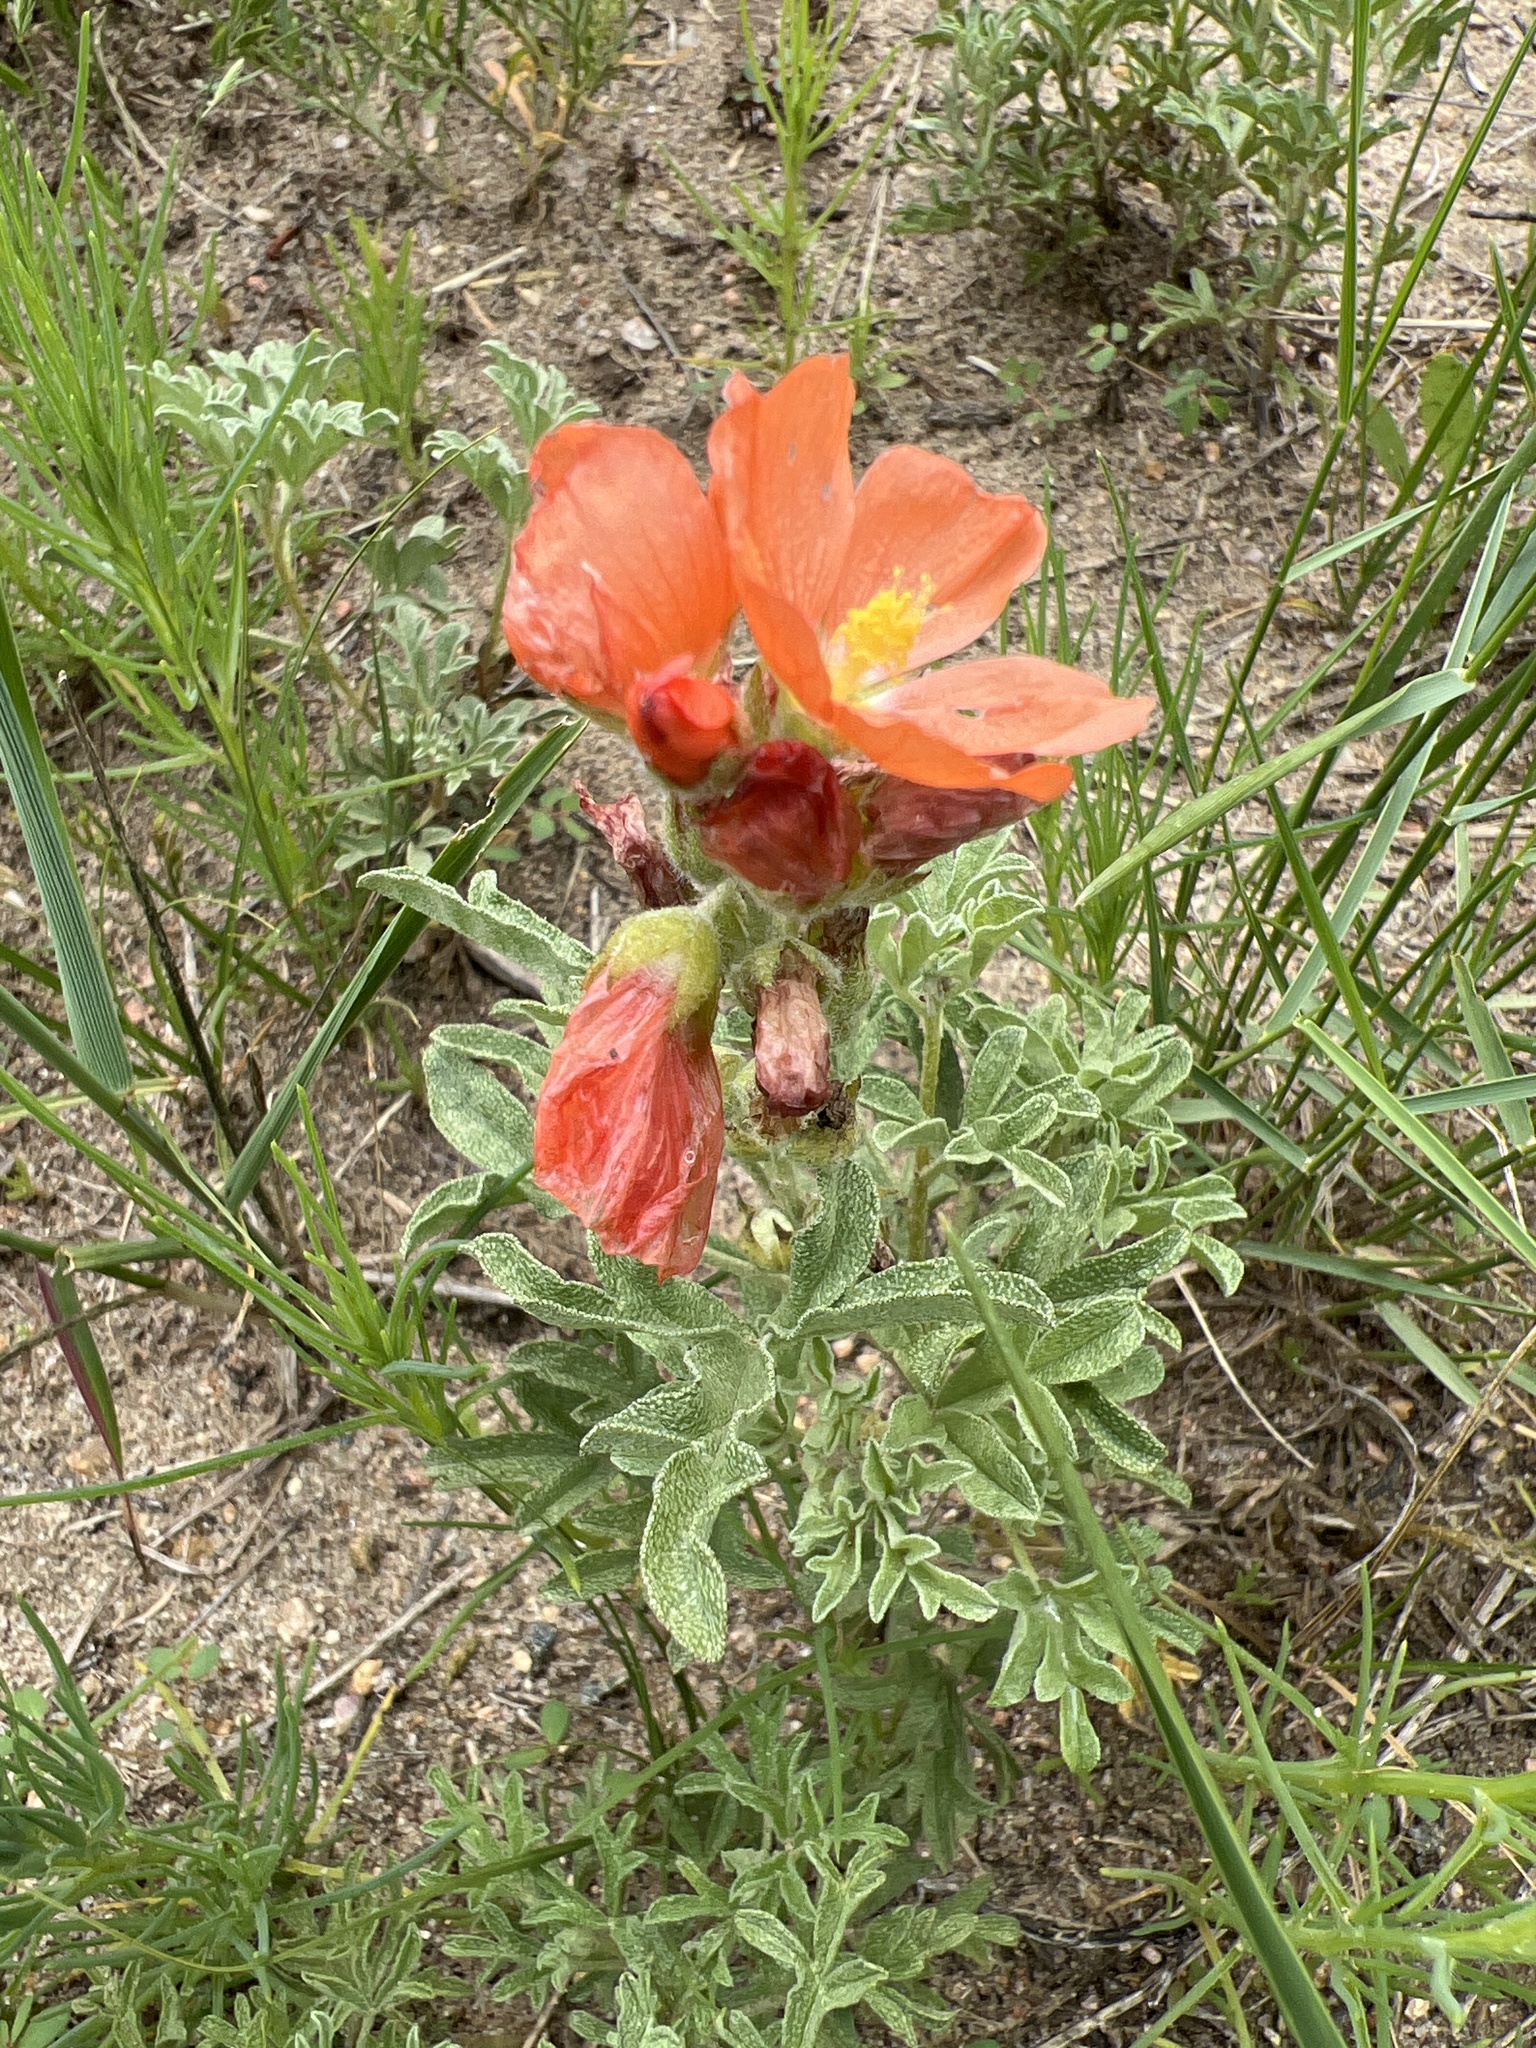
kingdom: Plantae
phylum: Tracheophyta
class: Magnoliopsida
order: Malvales
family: Malvaceae
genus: Sphaeralcea
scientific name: Sphaeralcea coccinea
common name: Moss-rose
